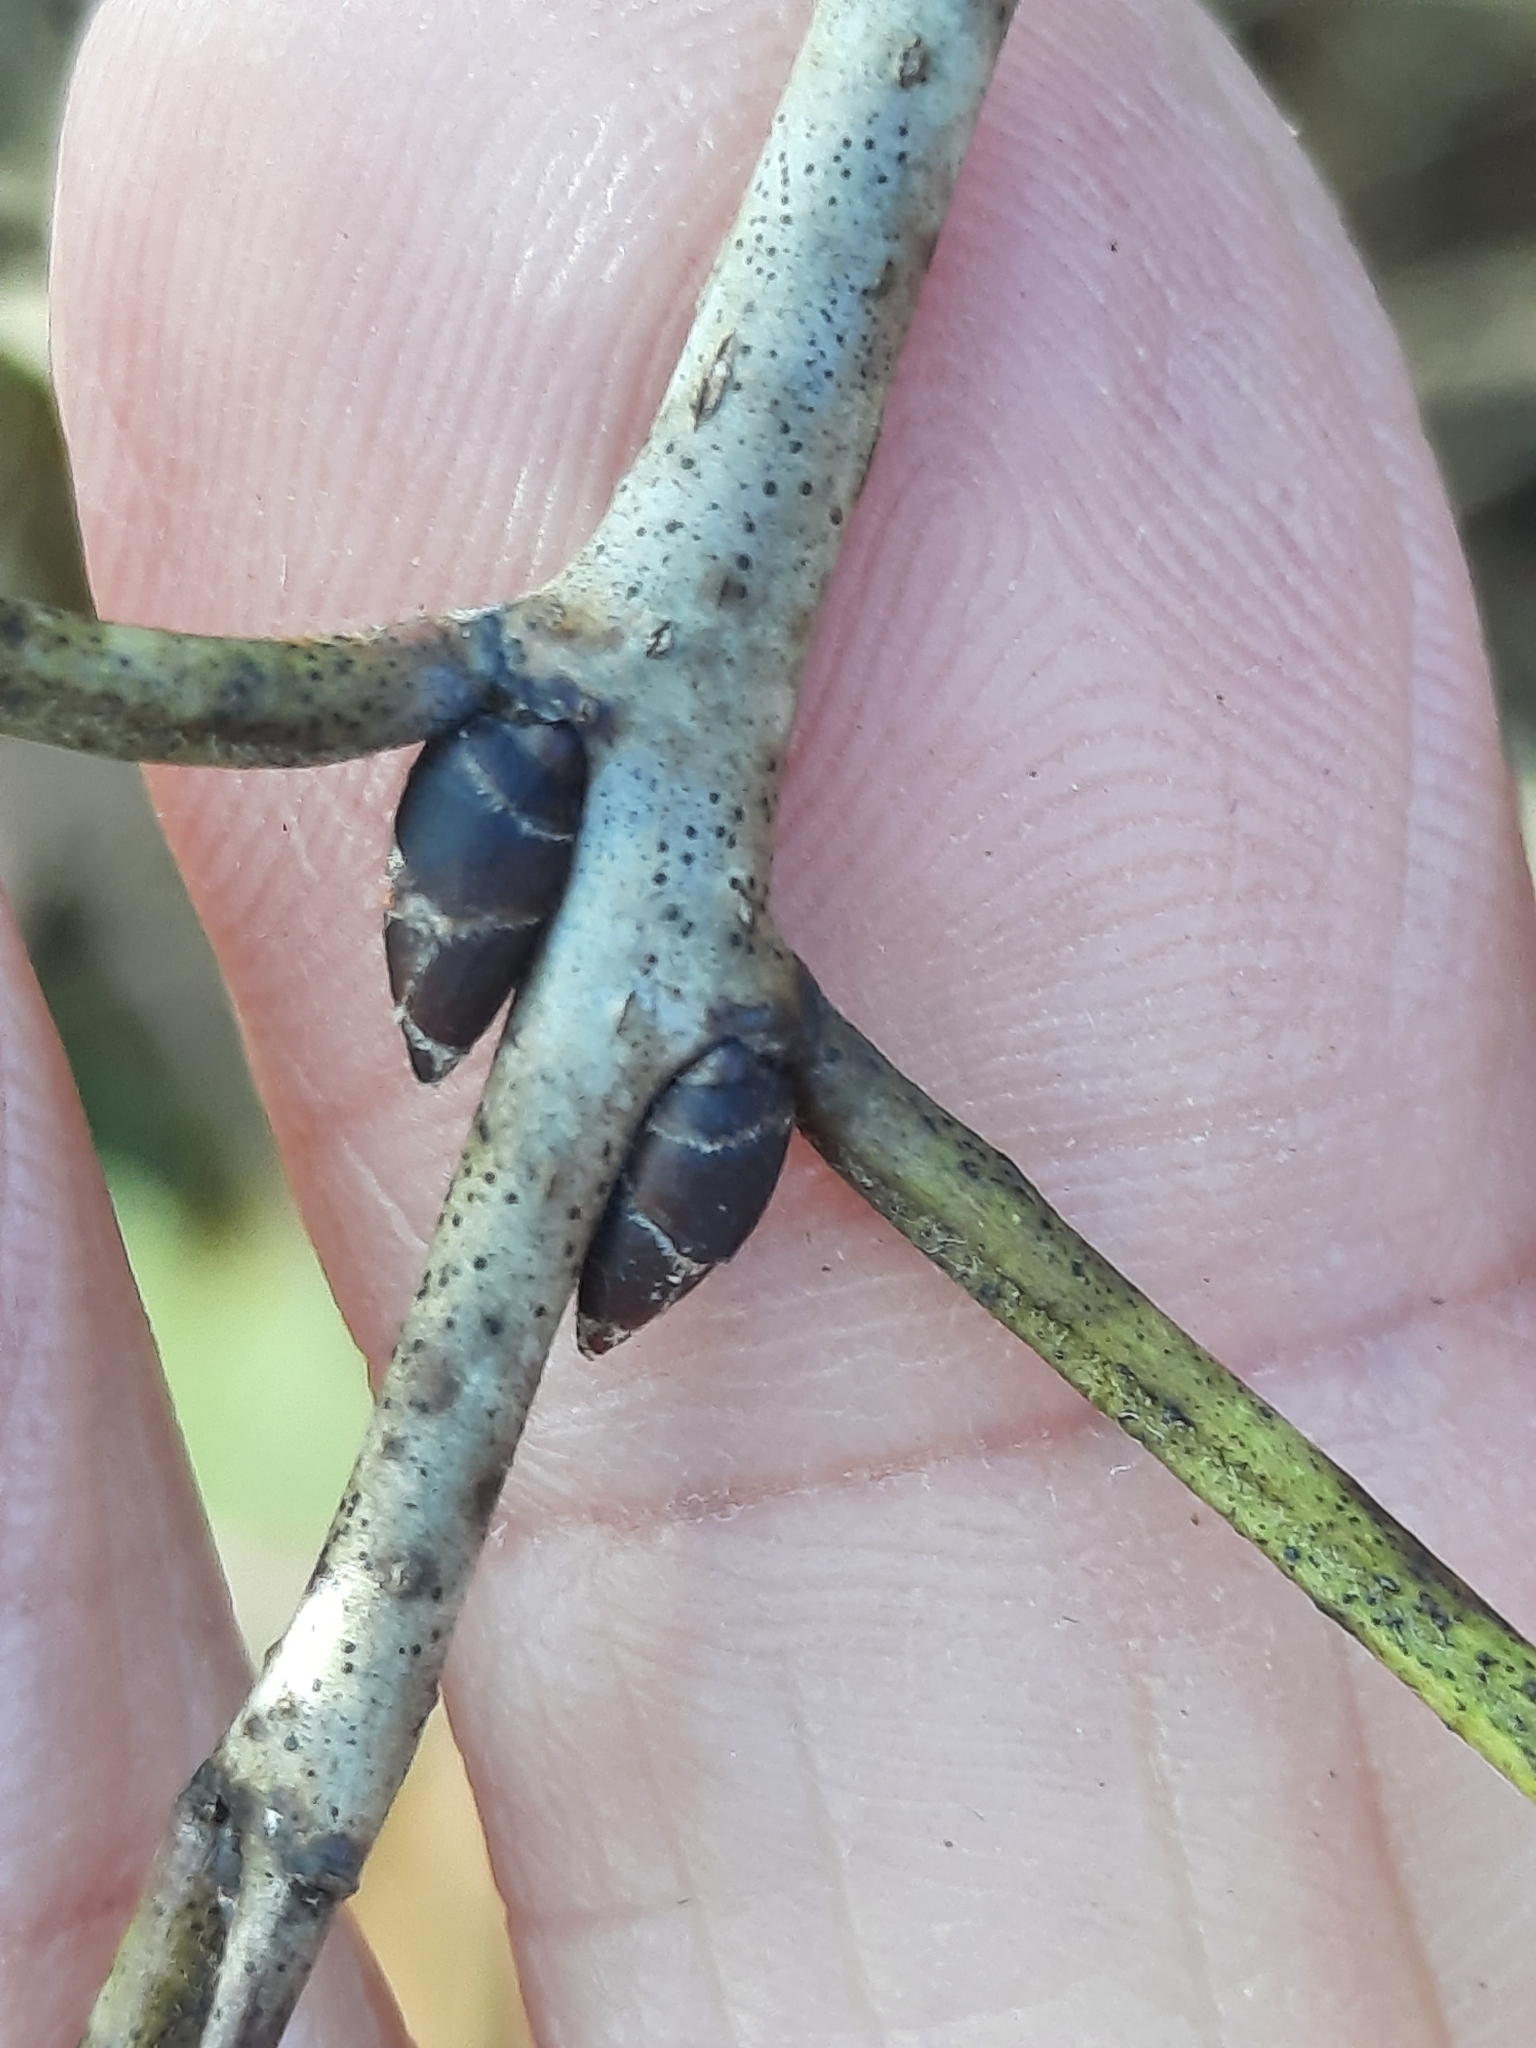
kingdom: Plantae
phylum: Tracheophyta
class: Magnoliopsida
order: Rosales
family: Rhamnaceae
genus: Rhamnus
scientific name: Rhamnus cathartica
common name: Common buckthorn
